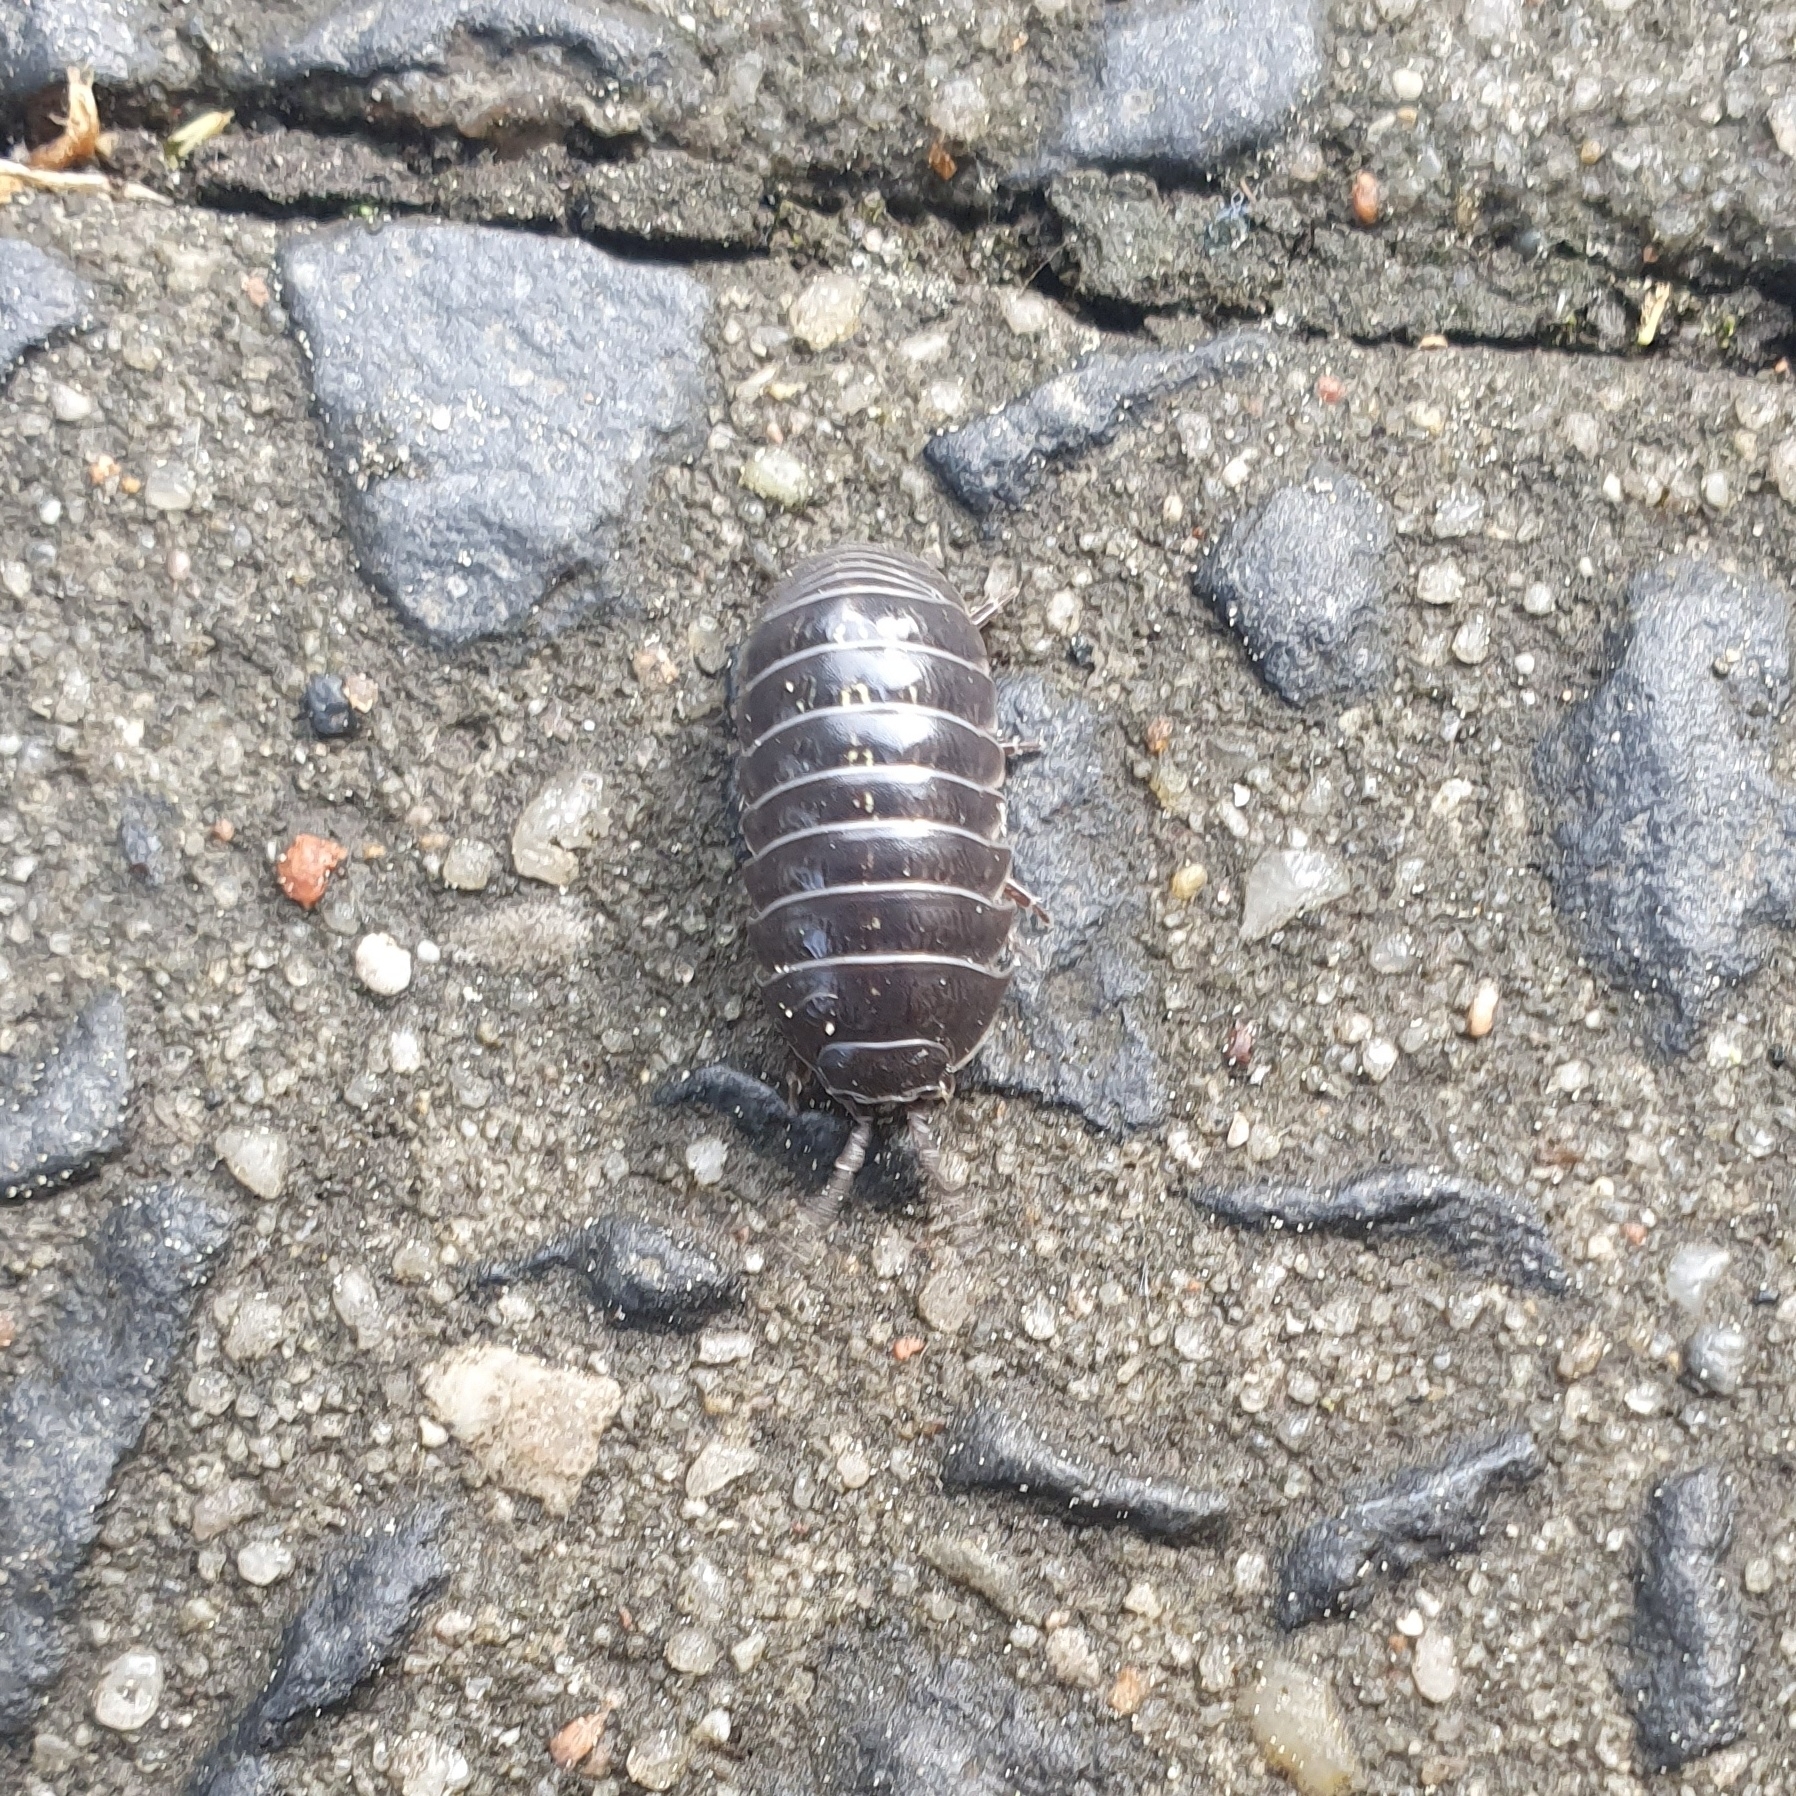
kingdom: Animalia
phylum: Arthropoda
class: Malacostraca
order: Isopoda
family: Armadillidiidae
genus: Armadillidium
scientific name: Armadillidium vulgare
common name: Common pill woodlouse
